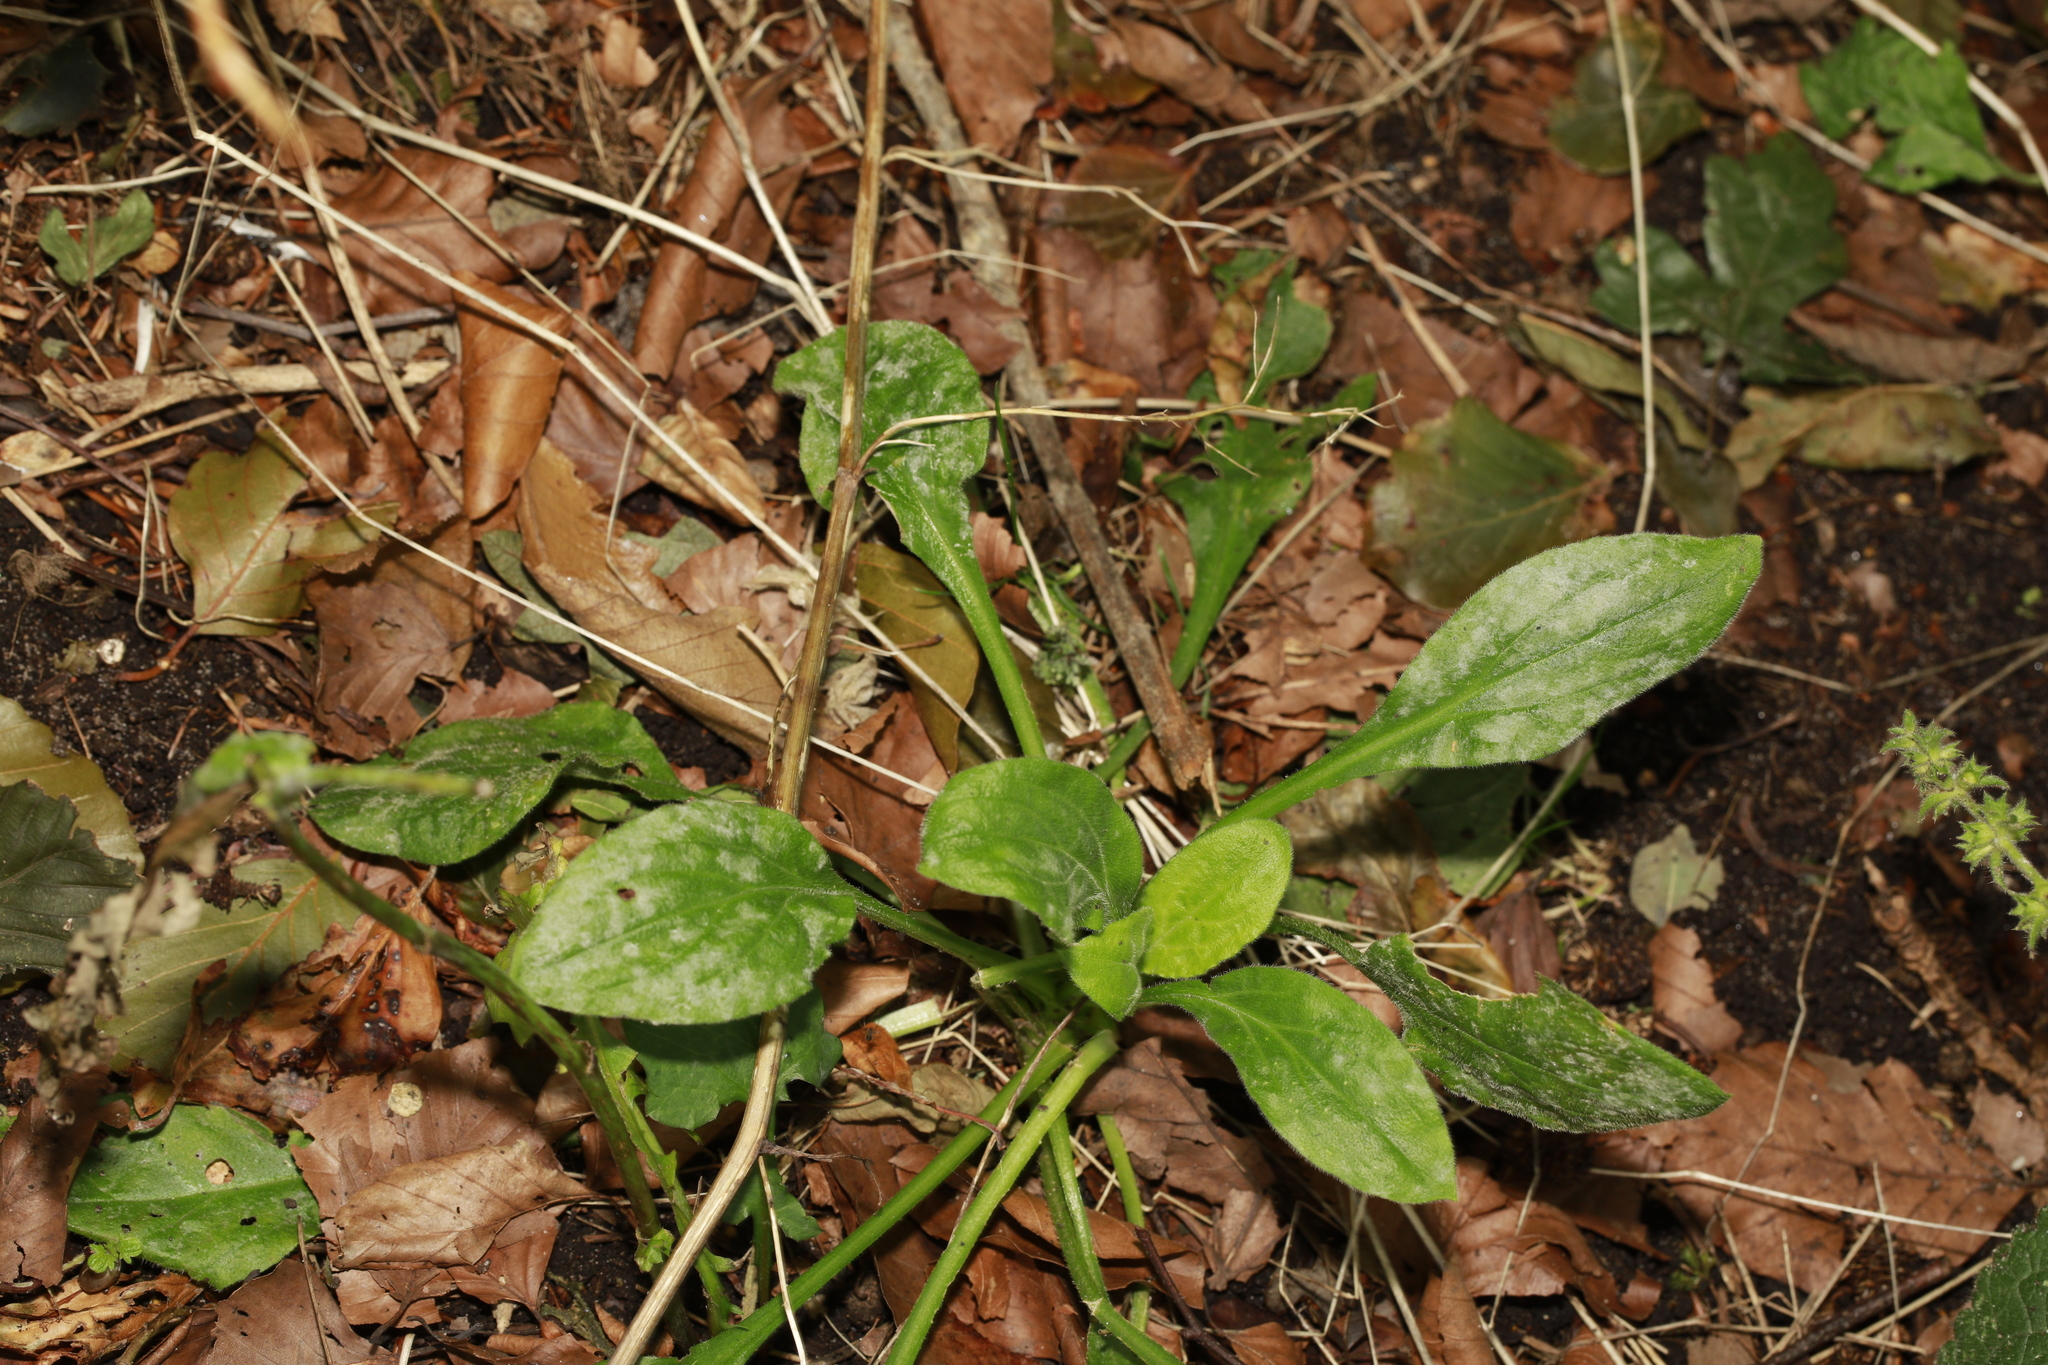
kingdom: Plantae
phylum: Tracheophyta
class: Magnoliopsida
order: Lamiales
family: Plantaginaceae
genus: Plantago
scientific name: Plantago major
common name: Common plantain
